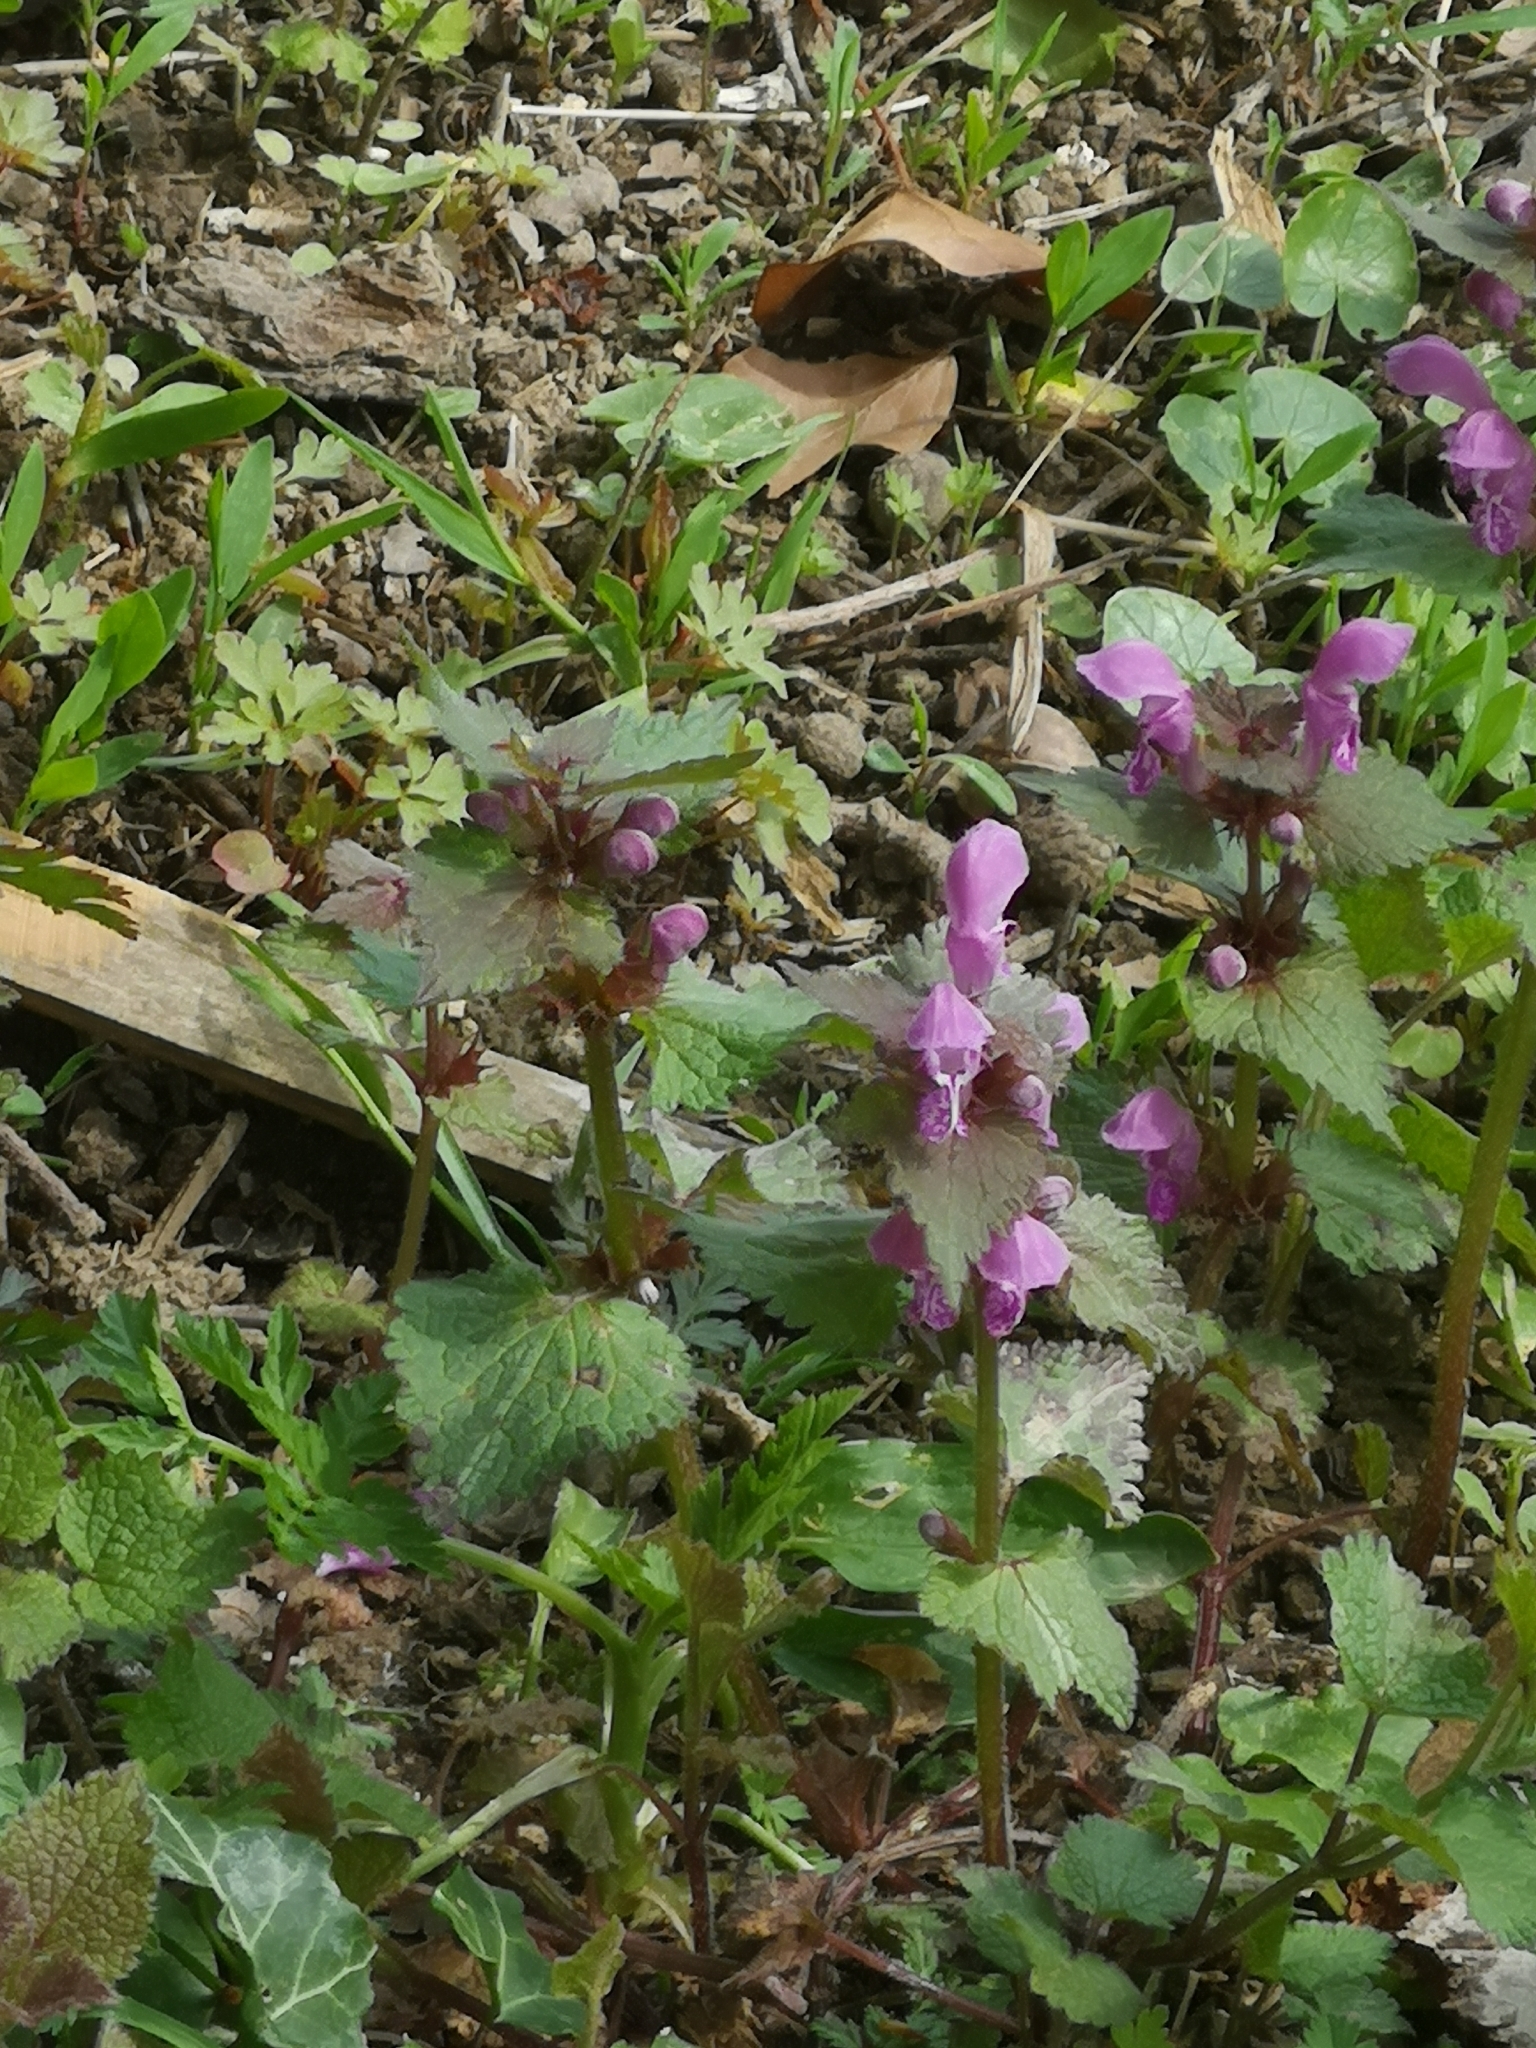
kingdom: Plantae
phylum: Tracheophyta
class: Magnoliopsida
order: Lamiales
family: Lamiaceae
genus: Lamium
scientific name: Lamium maculatum
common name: Spotted dead-nettle
